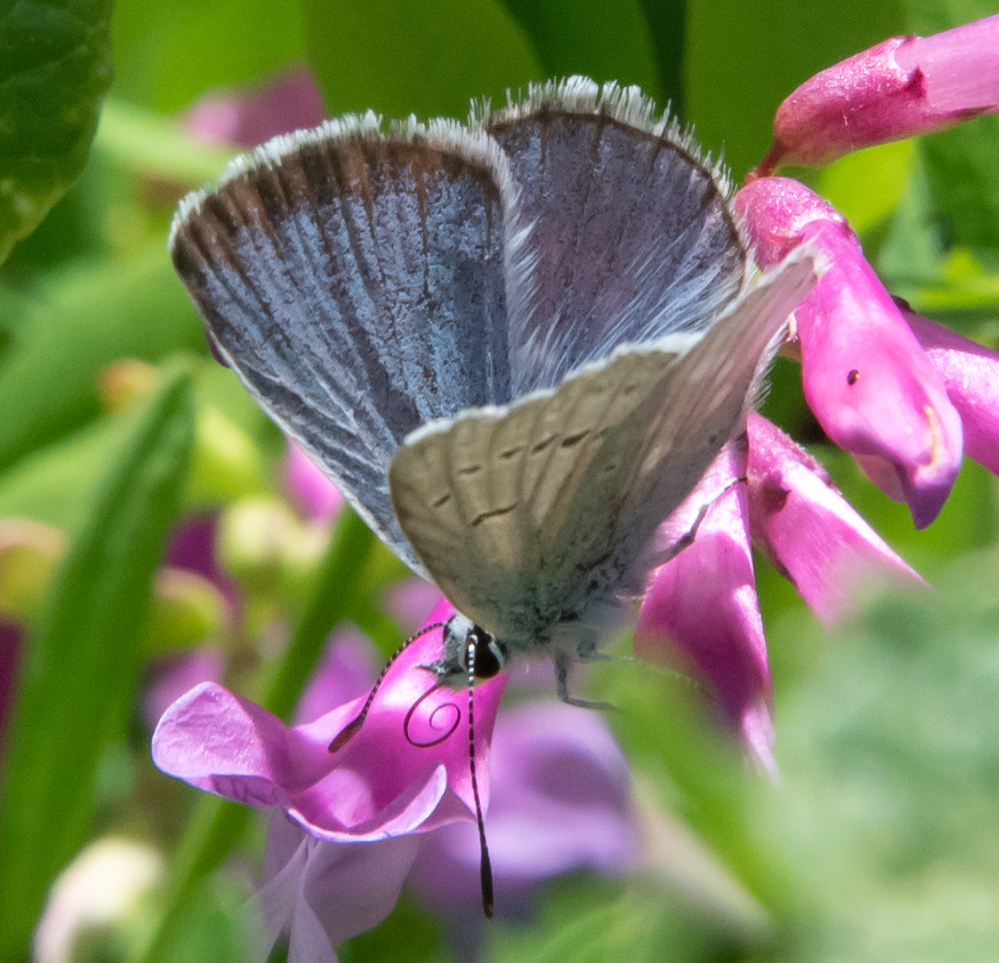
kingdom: Animalia
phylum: Arthropoda
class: Insecta
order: Lepidoptera
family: Lycaenidae
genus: Icaricia
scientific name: Icaricia icarioides
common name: Boisduval's blue
